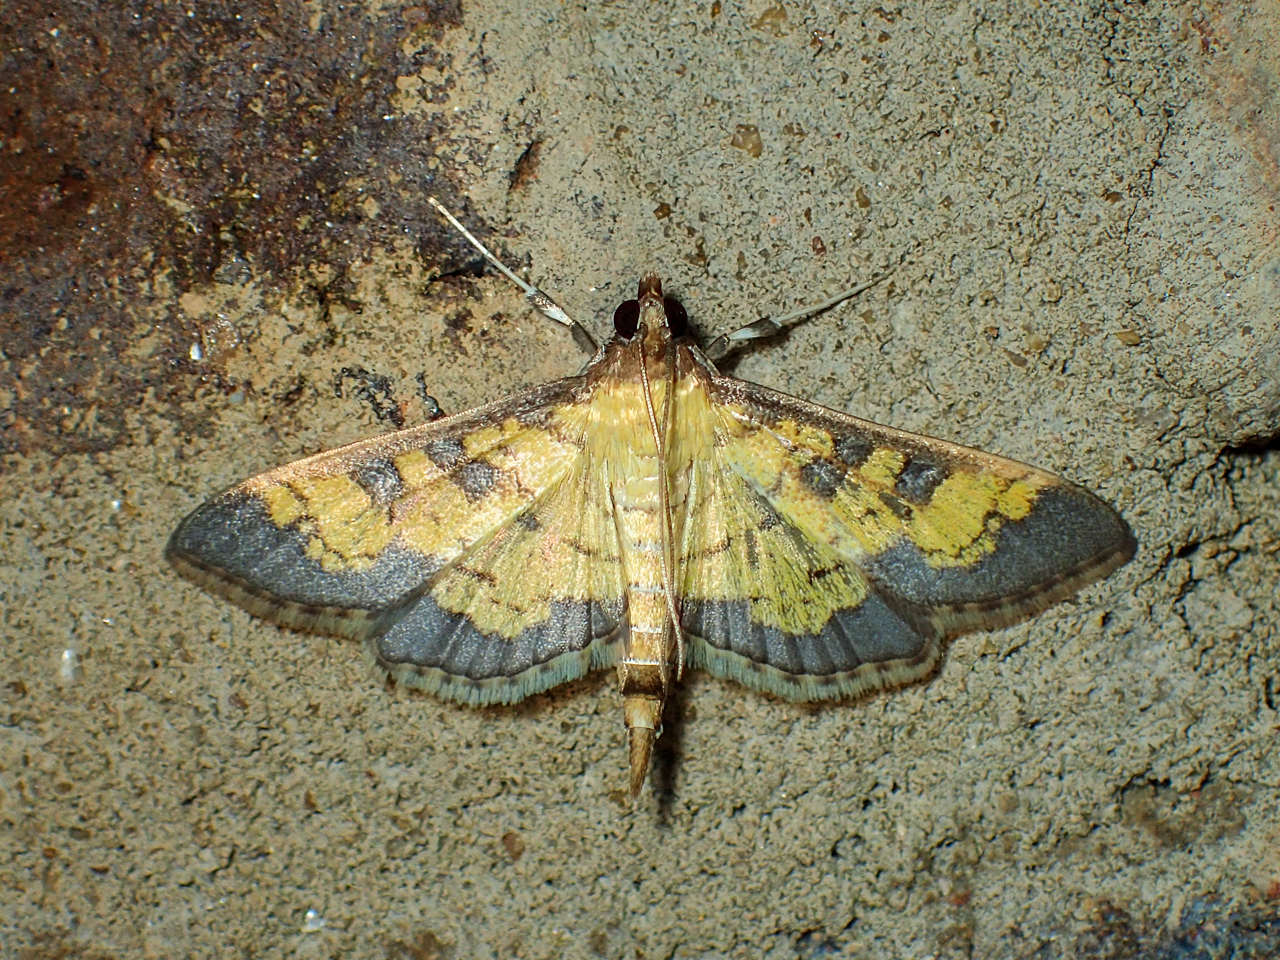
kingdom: Animalia
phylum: Arthropoda
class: Insecta
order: Lepidoptera
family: Crambidae
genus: Epipagis
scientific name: Epipagis adipaloides
